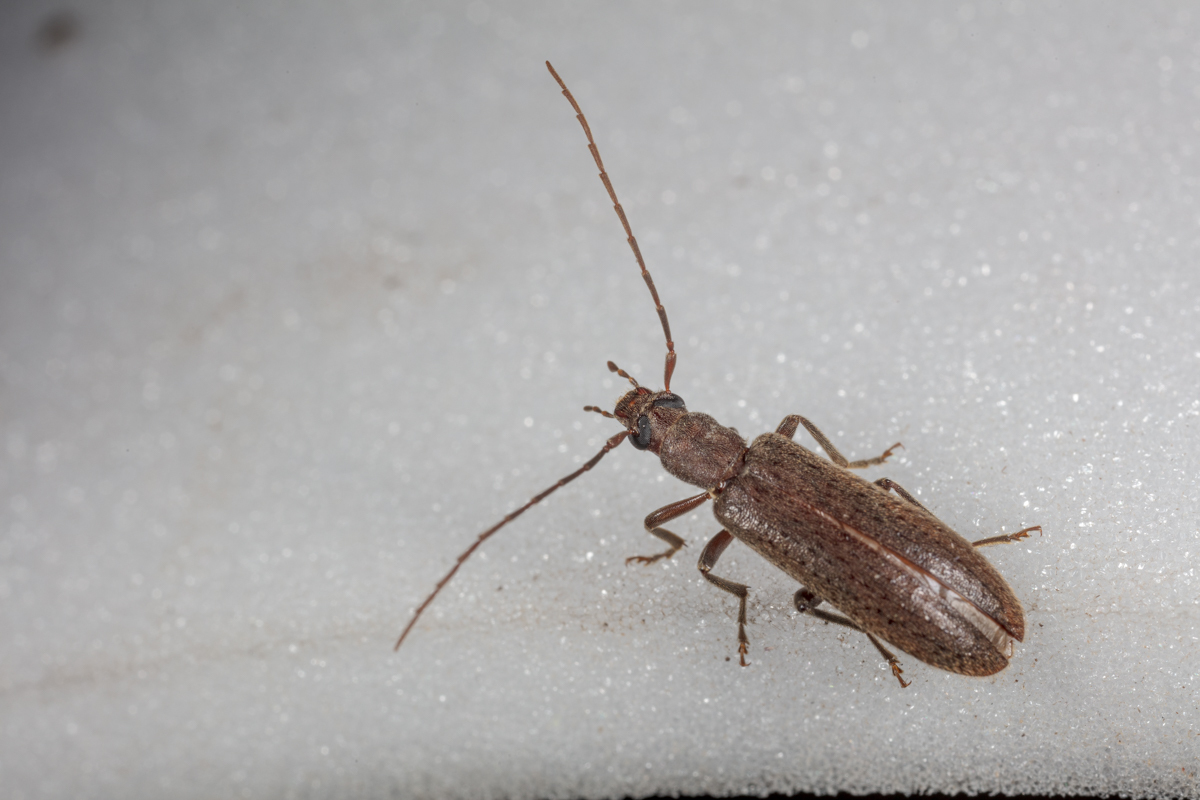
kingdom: Animalia
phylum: Arthropoda
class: Insecta
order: Coleoptera
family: Oedemeridae
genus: Sparedrus
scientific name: Sparedrus aspersus
